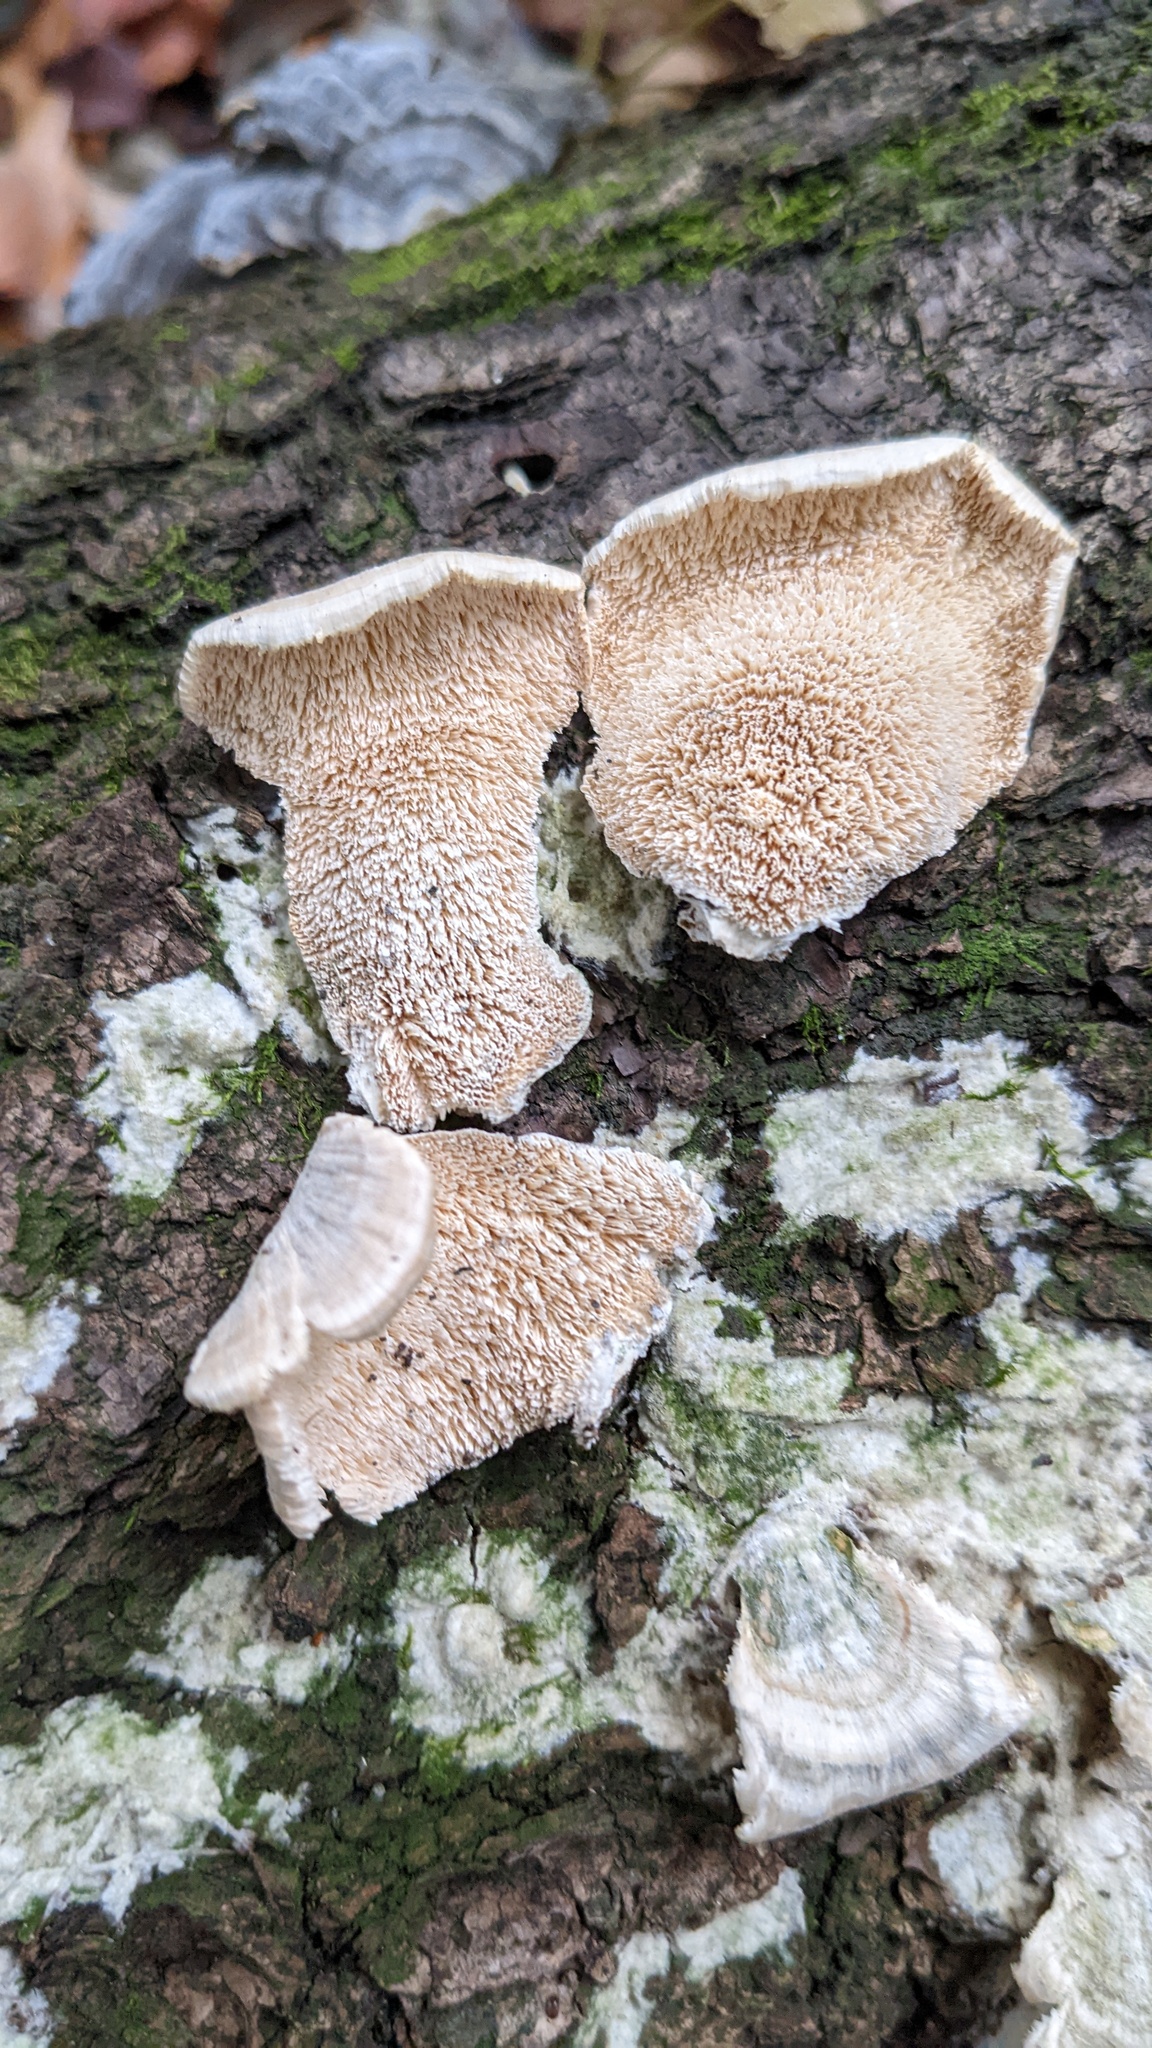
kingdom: Fungi
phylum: Basidiomycota
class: Agaricomycetes
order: Hymenochaetales
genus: Trichaptum
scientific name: Trichaptum biforme
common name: Violet-toothed polypore
